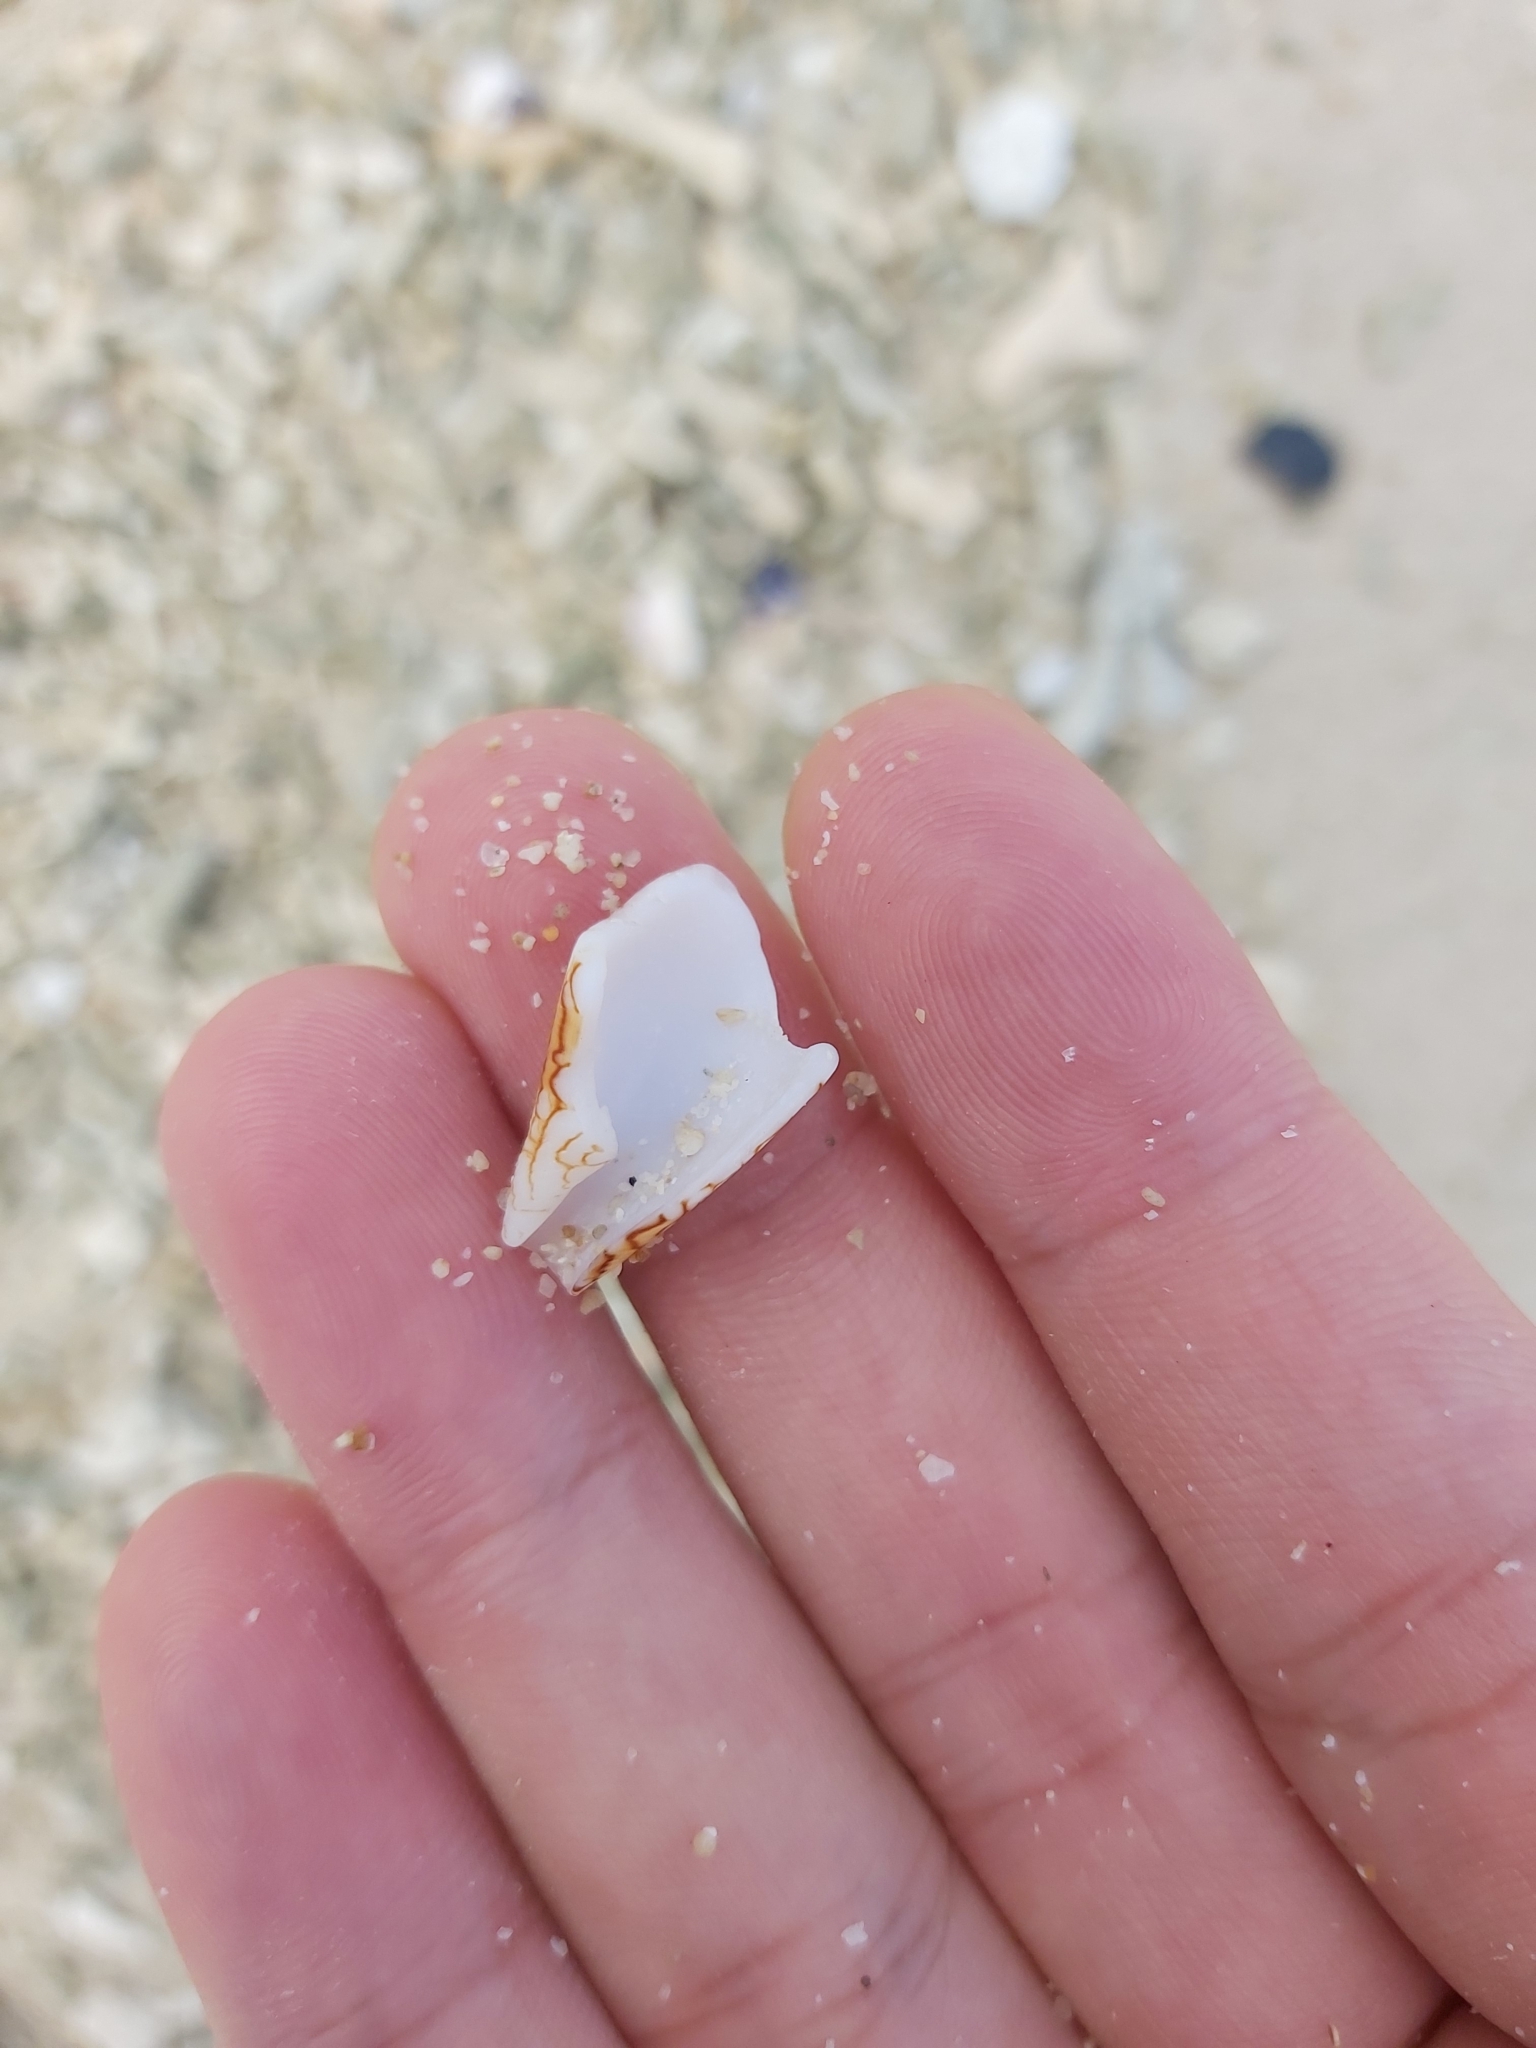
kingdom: Animalia
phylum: Mollusca
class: Gastropoda
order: Neogastropoda
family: Conidae
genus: Conus
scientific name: Conus textile
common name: Cloth-of-gold cone
